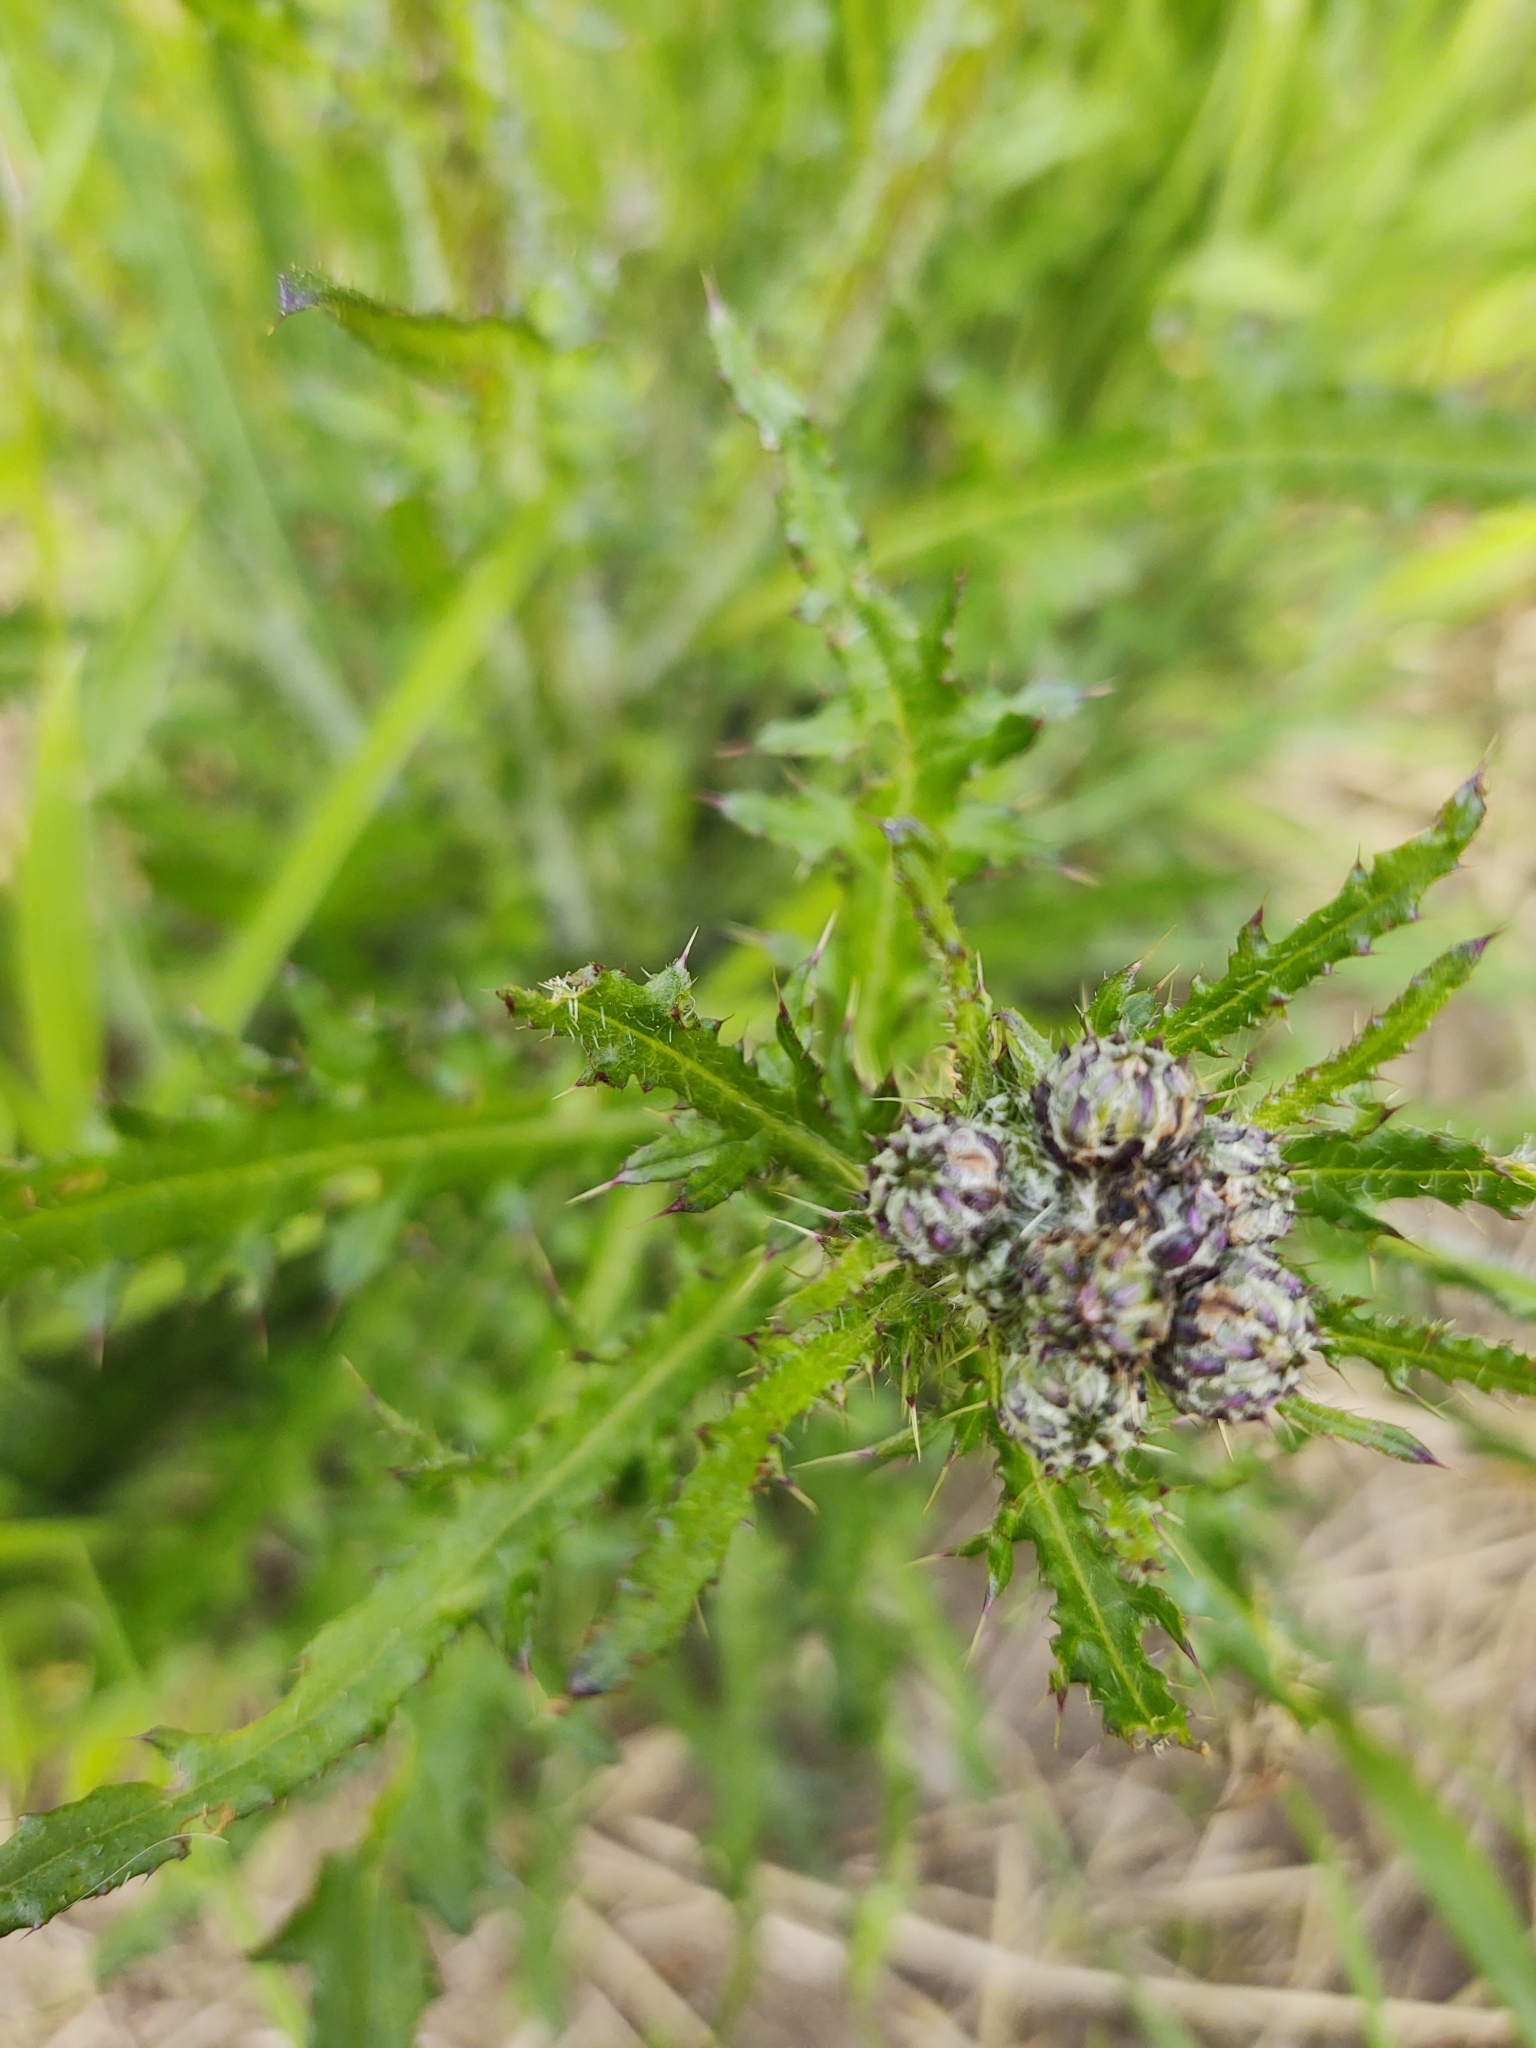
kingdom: Plantae
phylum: Tracheophyta
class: Magnoliopsida
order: Asterales
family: Asteraceae
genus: Cirsium
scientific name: Cirsium palustre
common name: Marsh thistle
